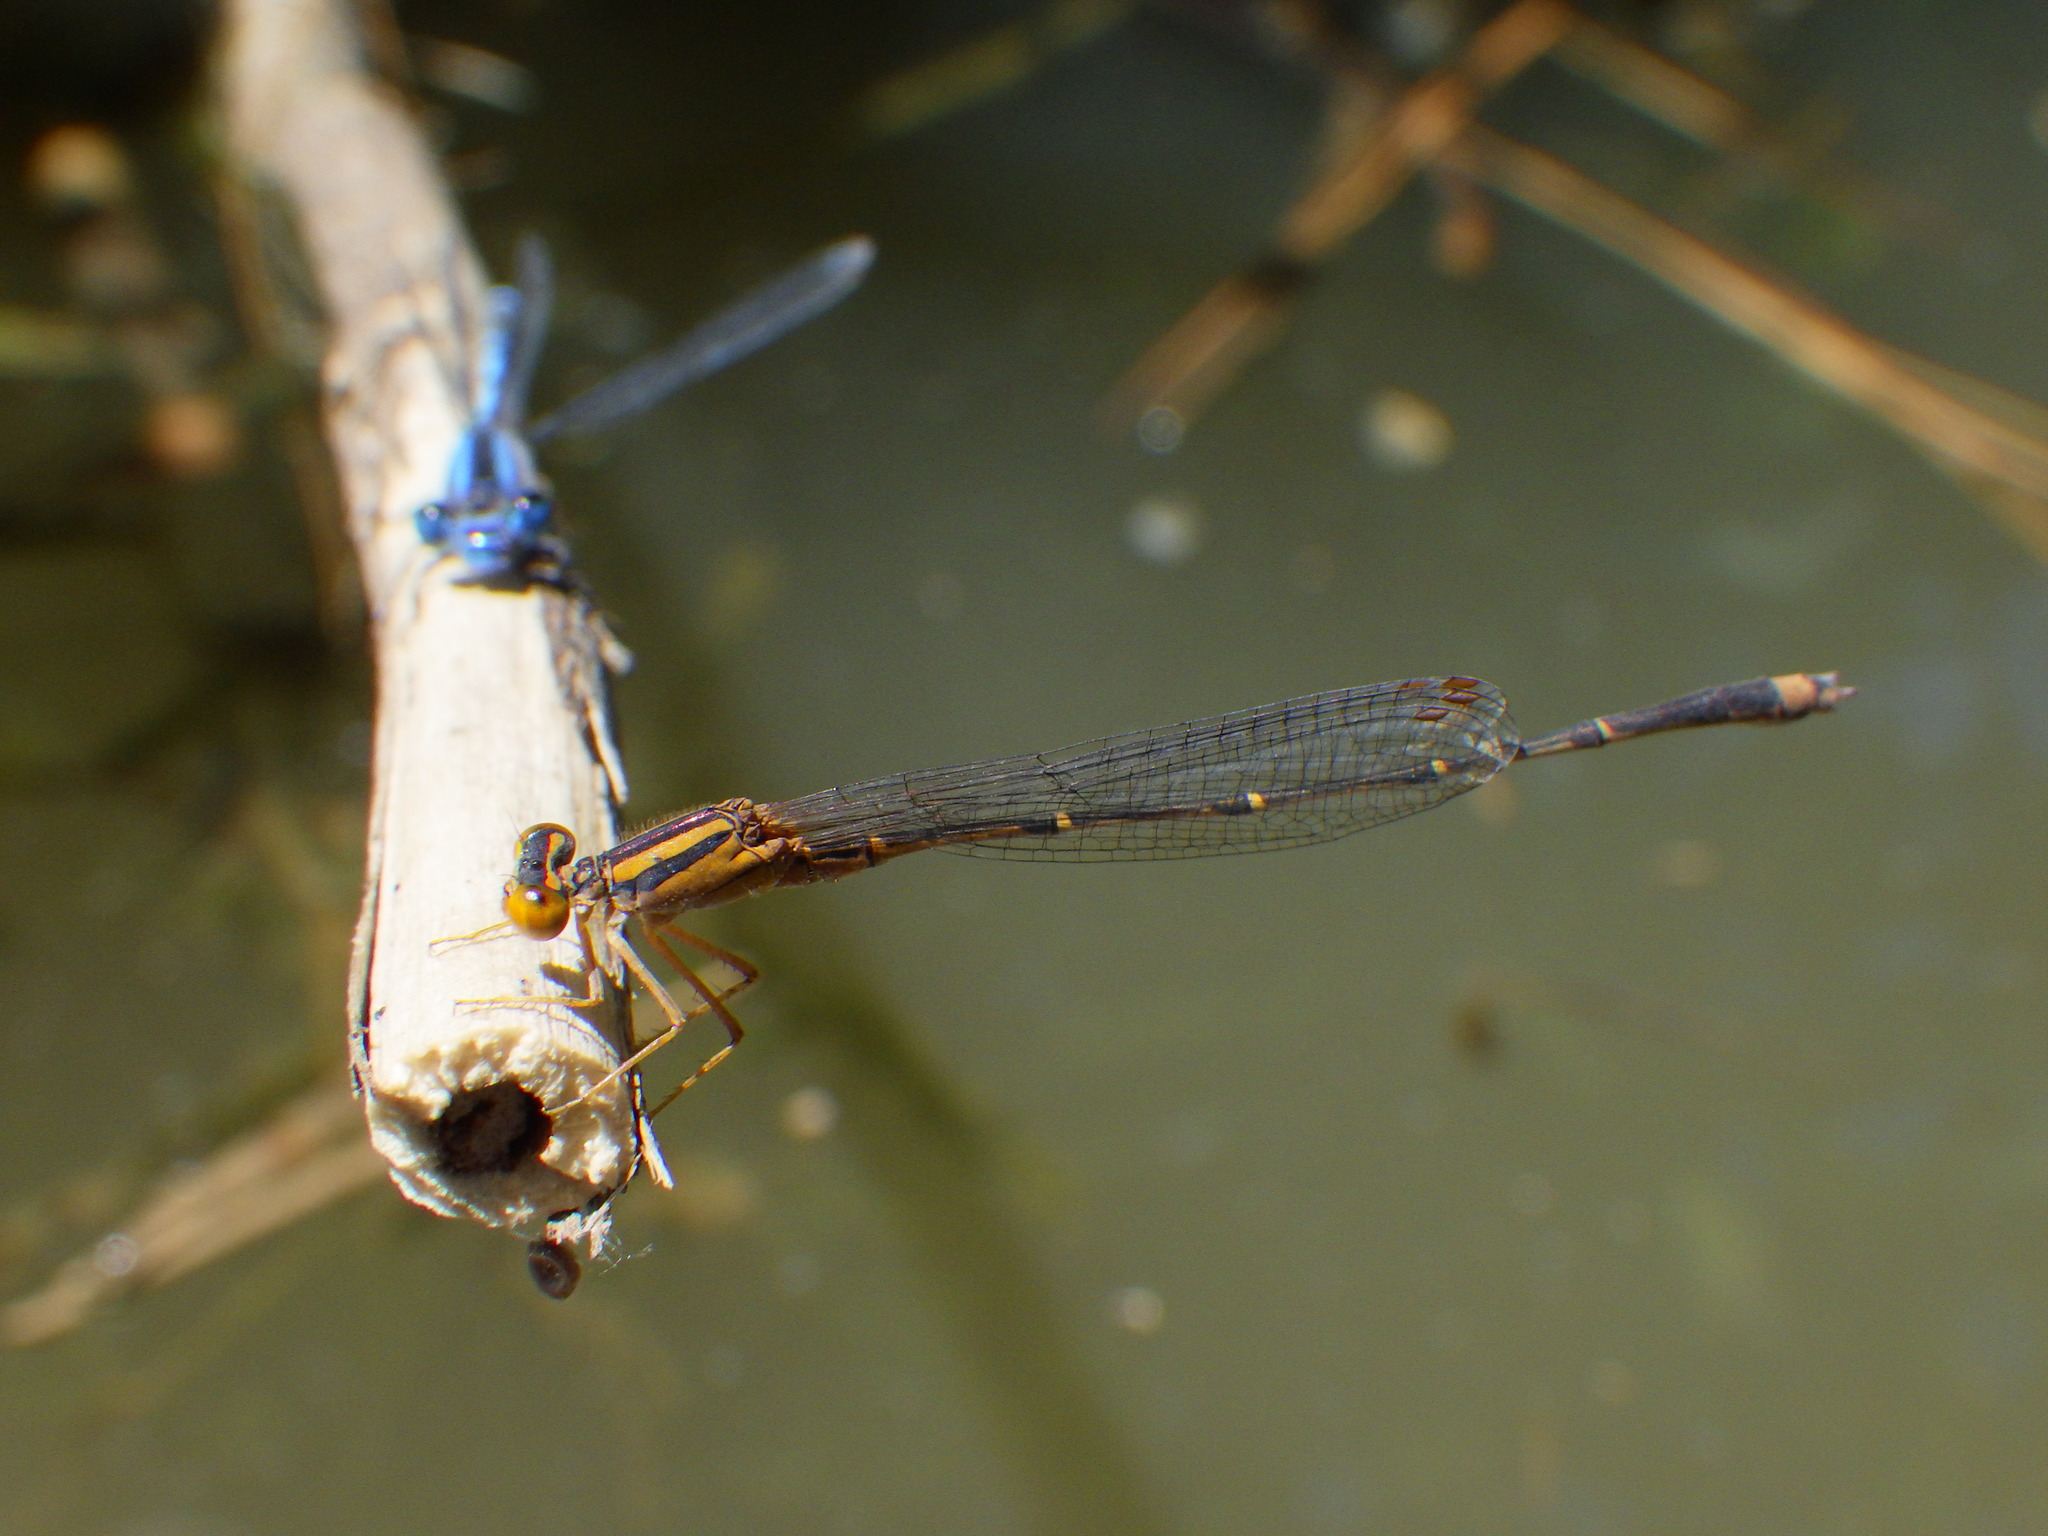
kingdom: Animalia
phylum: Arthropoda
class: Insecta
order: Odonata
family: Coenagrionidae
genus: Enallagma
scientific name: Enallagma signatum
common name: Orange bluet
